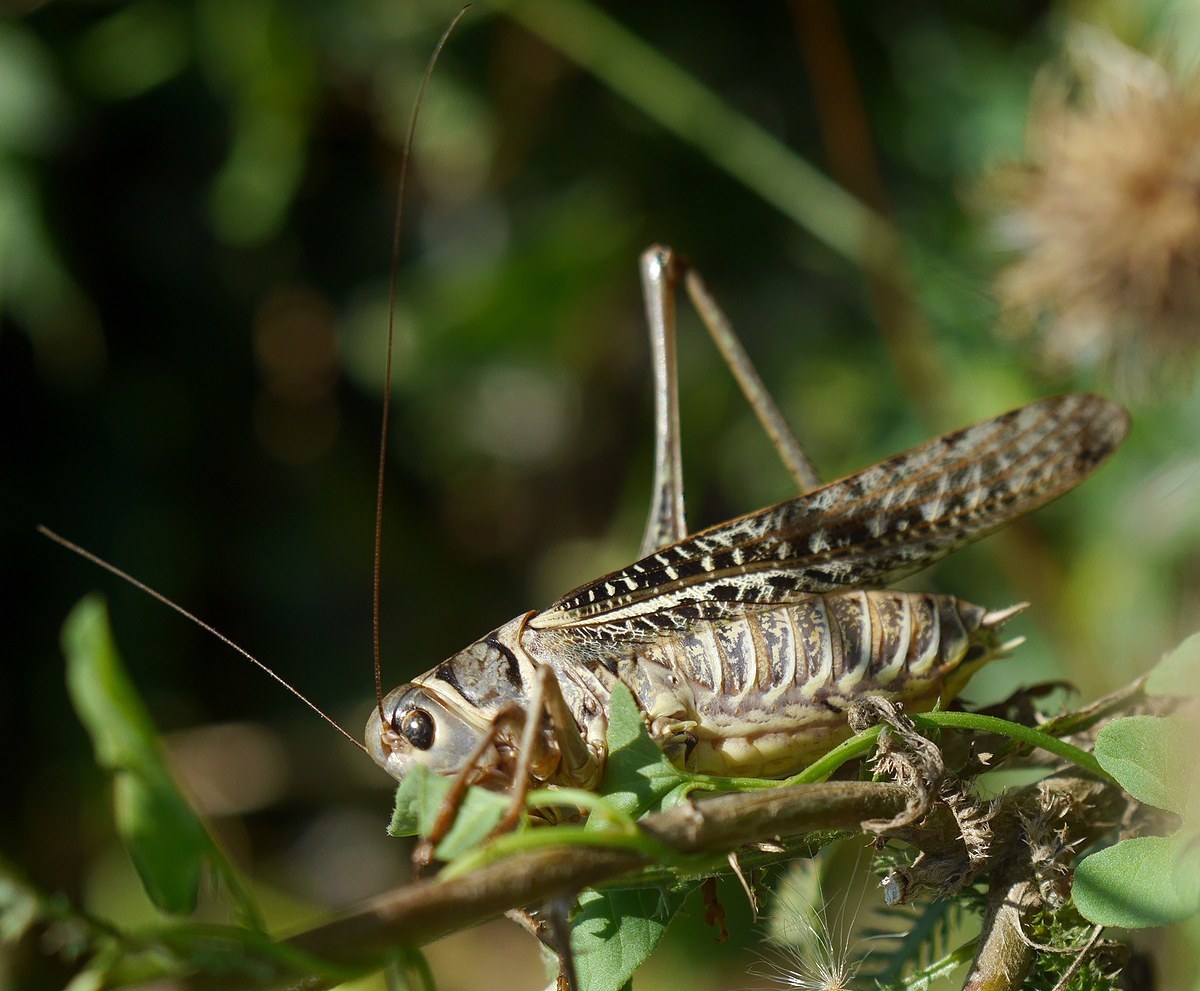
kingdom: Animalia
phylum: Arthropoda
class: Insecta
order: Orthoptera
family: Tettigoniidae
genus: Decticus
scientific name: Decticus albifrons
